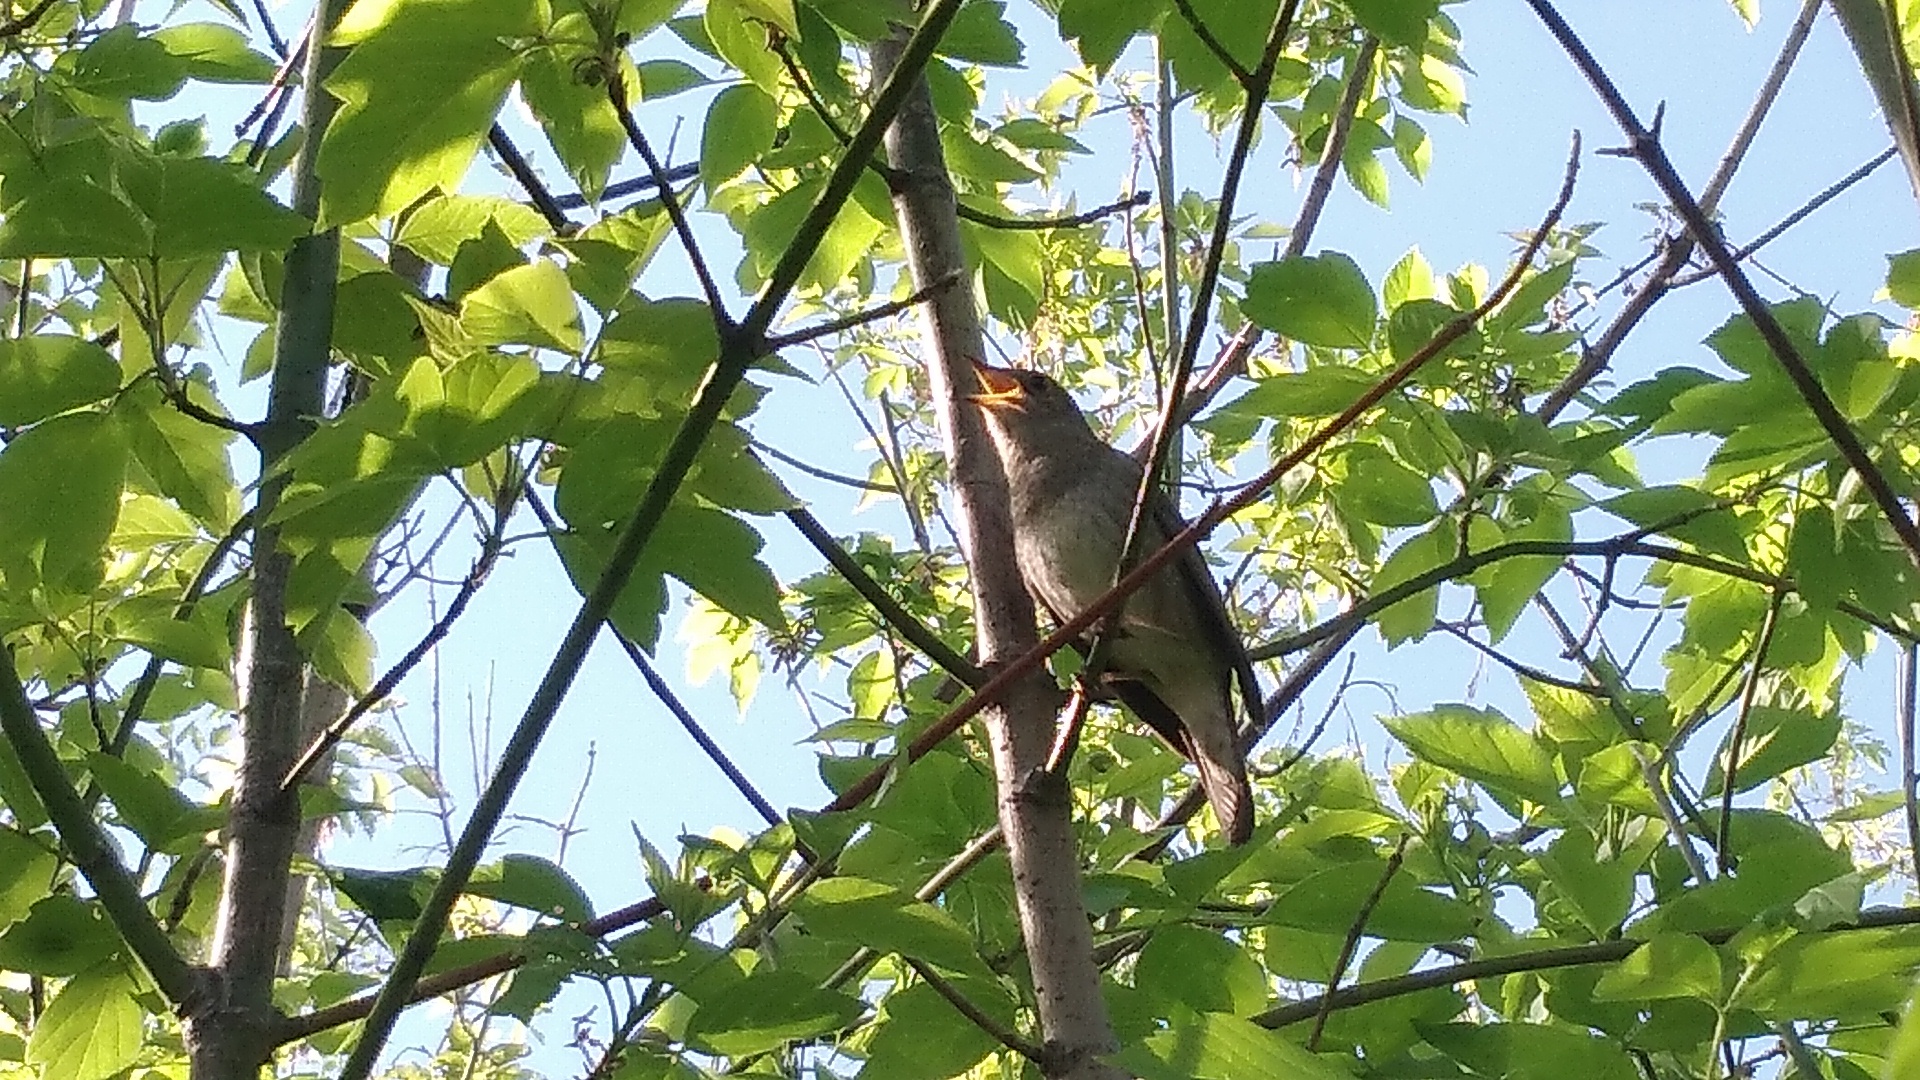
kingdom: Animalia
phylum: Chordata
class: Aves
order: Passeriformes
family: Muscicapidae
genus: Luscinia
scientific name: Luscinia luscinia
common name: Thrush nightingale
